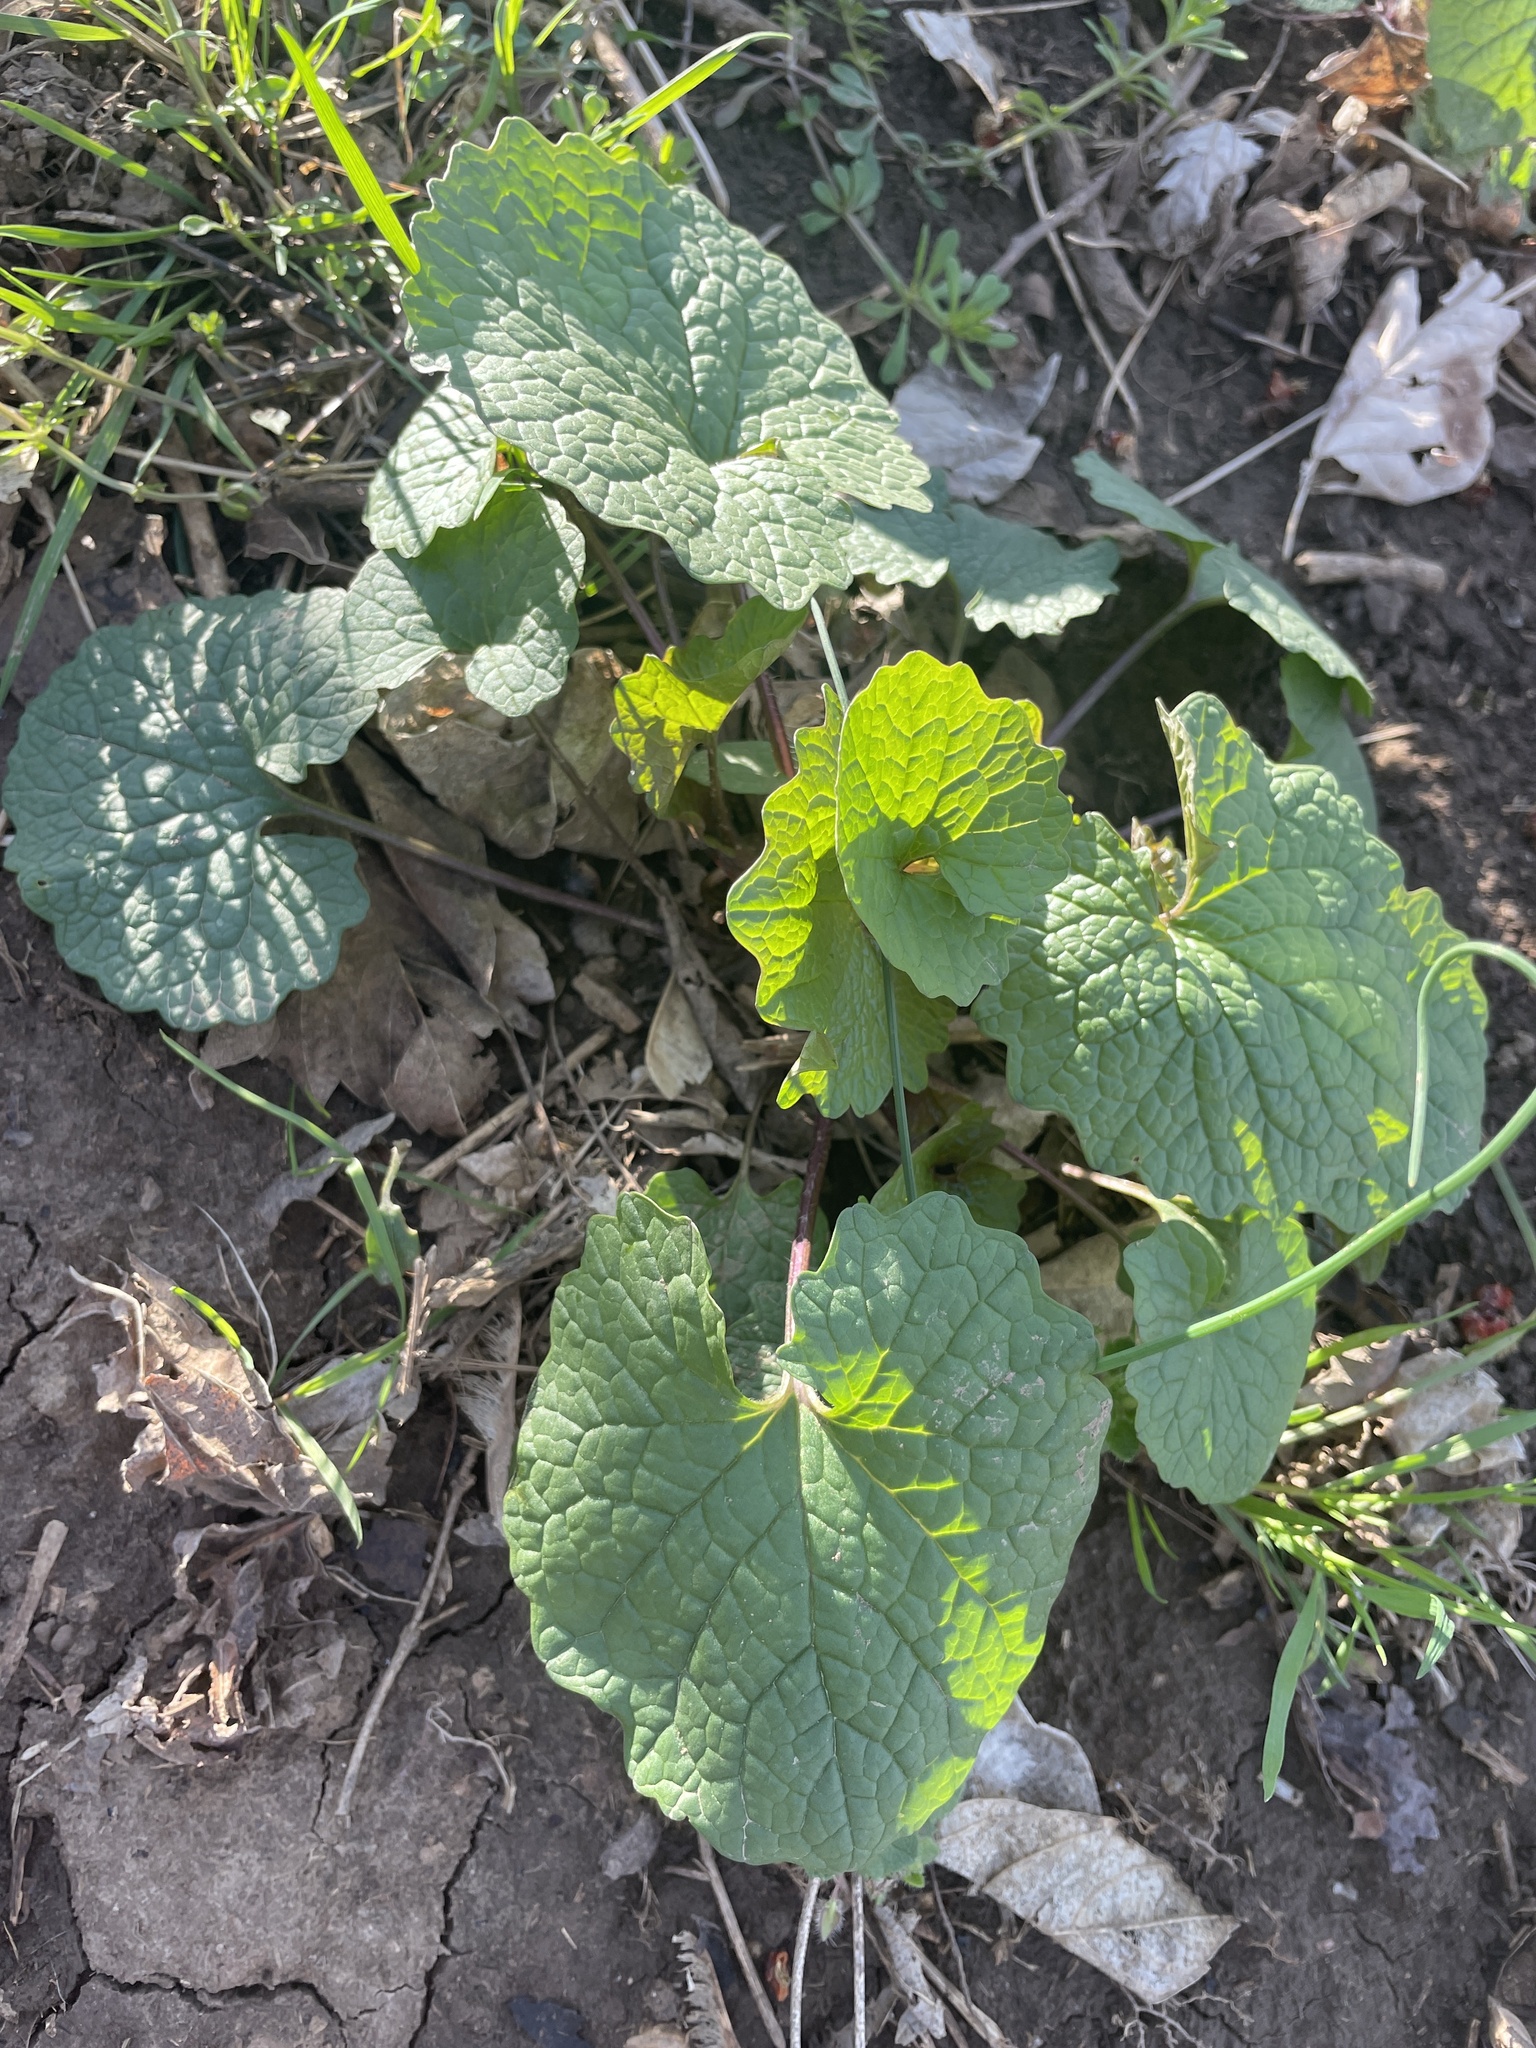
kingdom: Plantae
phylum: Tracheophyta
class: Magnoliopsida
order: Brassicales
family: Brassicaceae
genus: Alliaria
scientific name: Alliaria petiolata
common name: Garlic mustard
